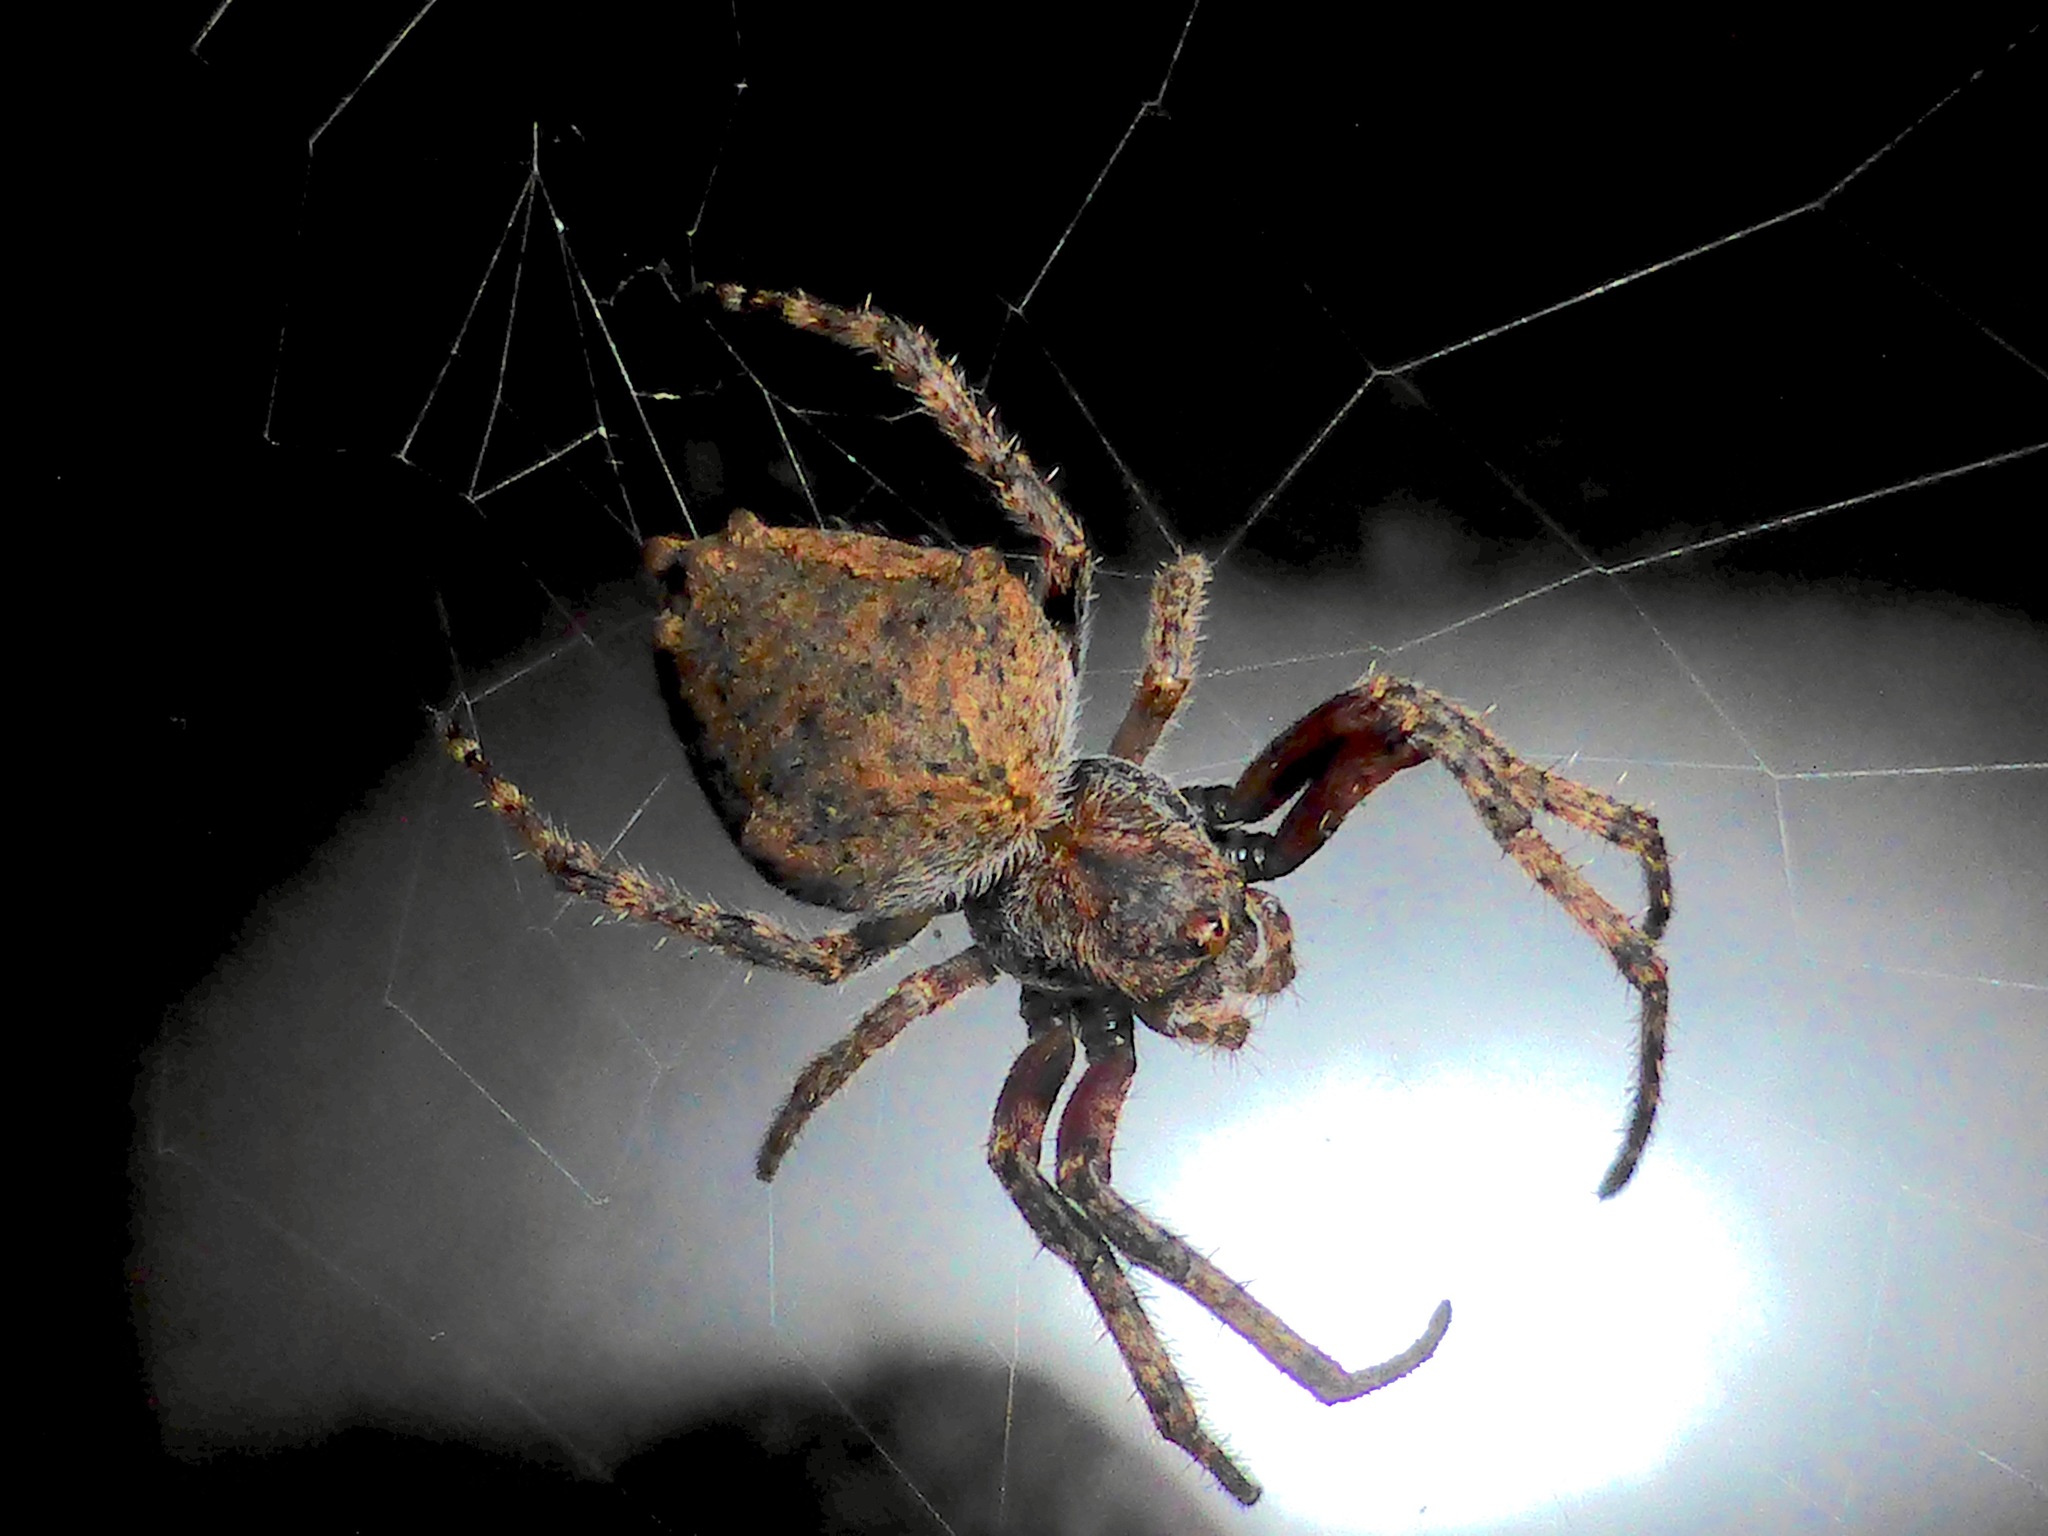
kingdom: Animalia
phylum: Arthropoda
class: Arachnida
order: Araneae
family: Araneidae
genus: Eriophora
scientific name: Eriophora pustulosa
